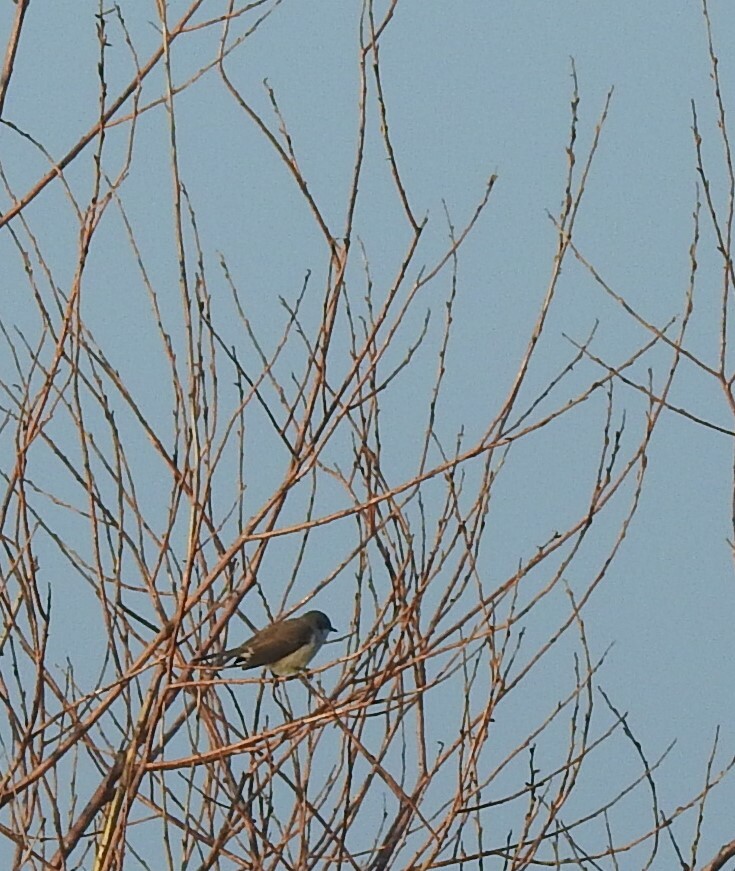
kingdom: Animalia
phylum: Chordata
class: Aves
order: Passeriformes
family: Sylviidae
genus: Sylvia
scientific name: Sylvia curruca
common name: Lesser whitethroat
